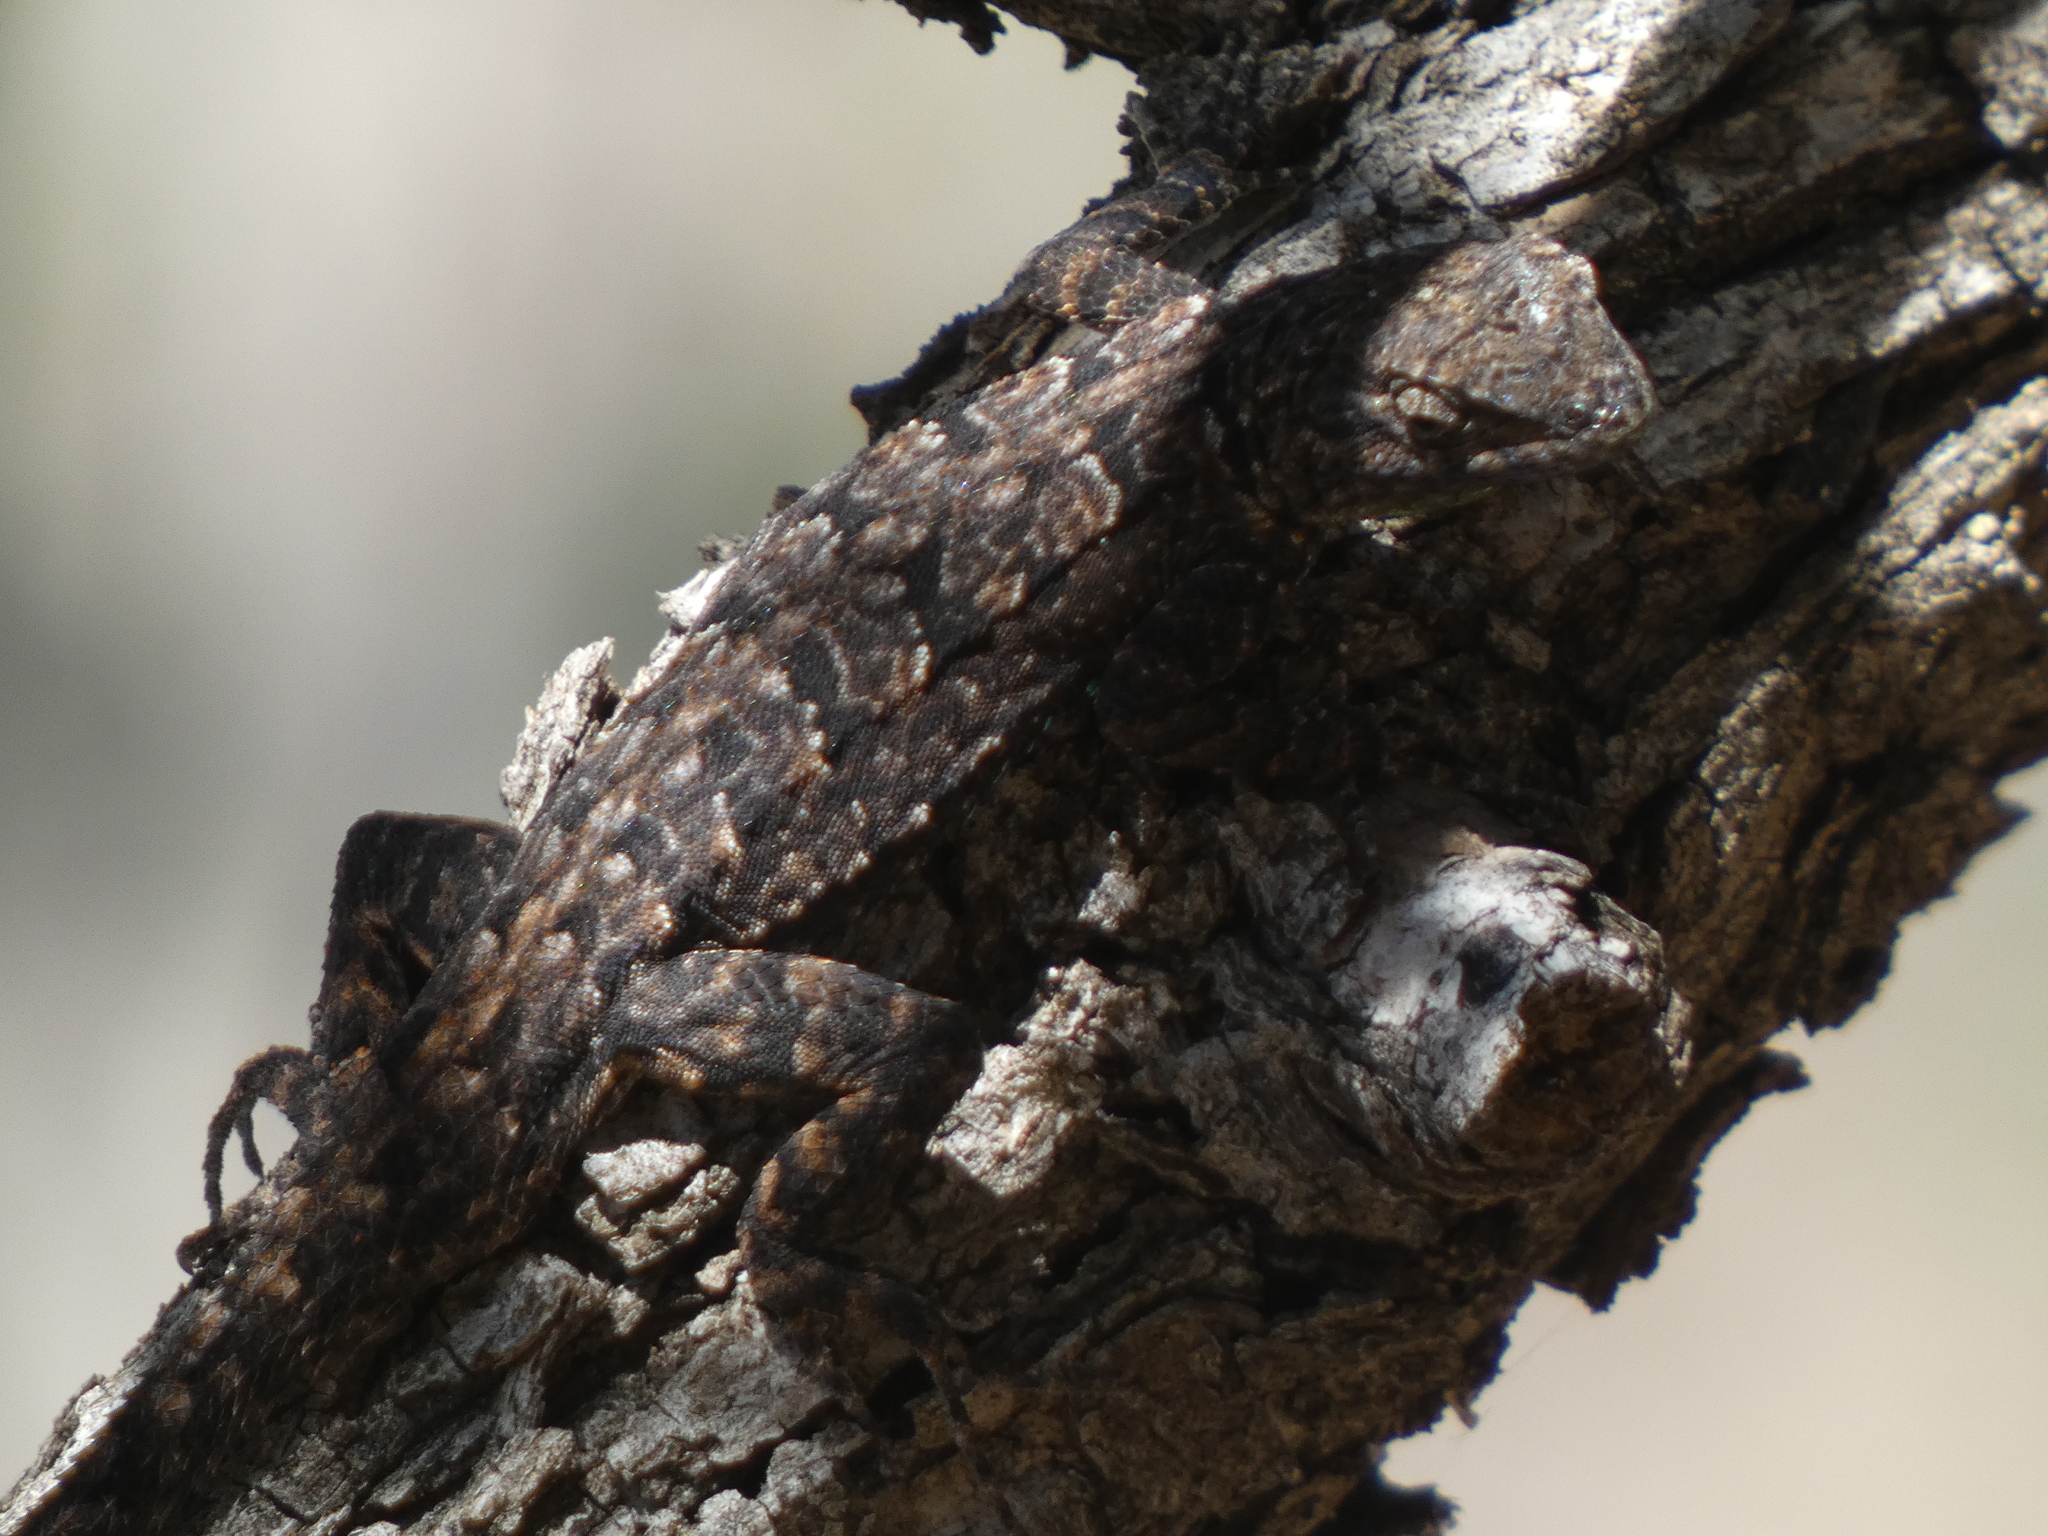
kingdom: Animalia
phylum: Chordata
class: Squamata
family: Phrynosomatidae
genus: Urosaurus
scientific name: Urosaurus ornatus
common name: Ornate tree lizard
